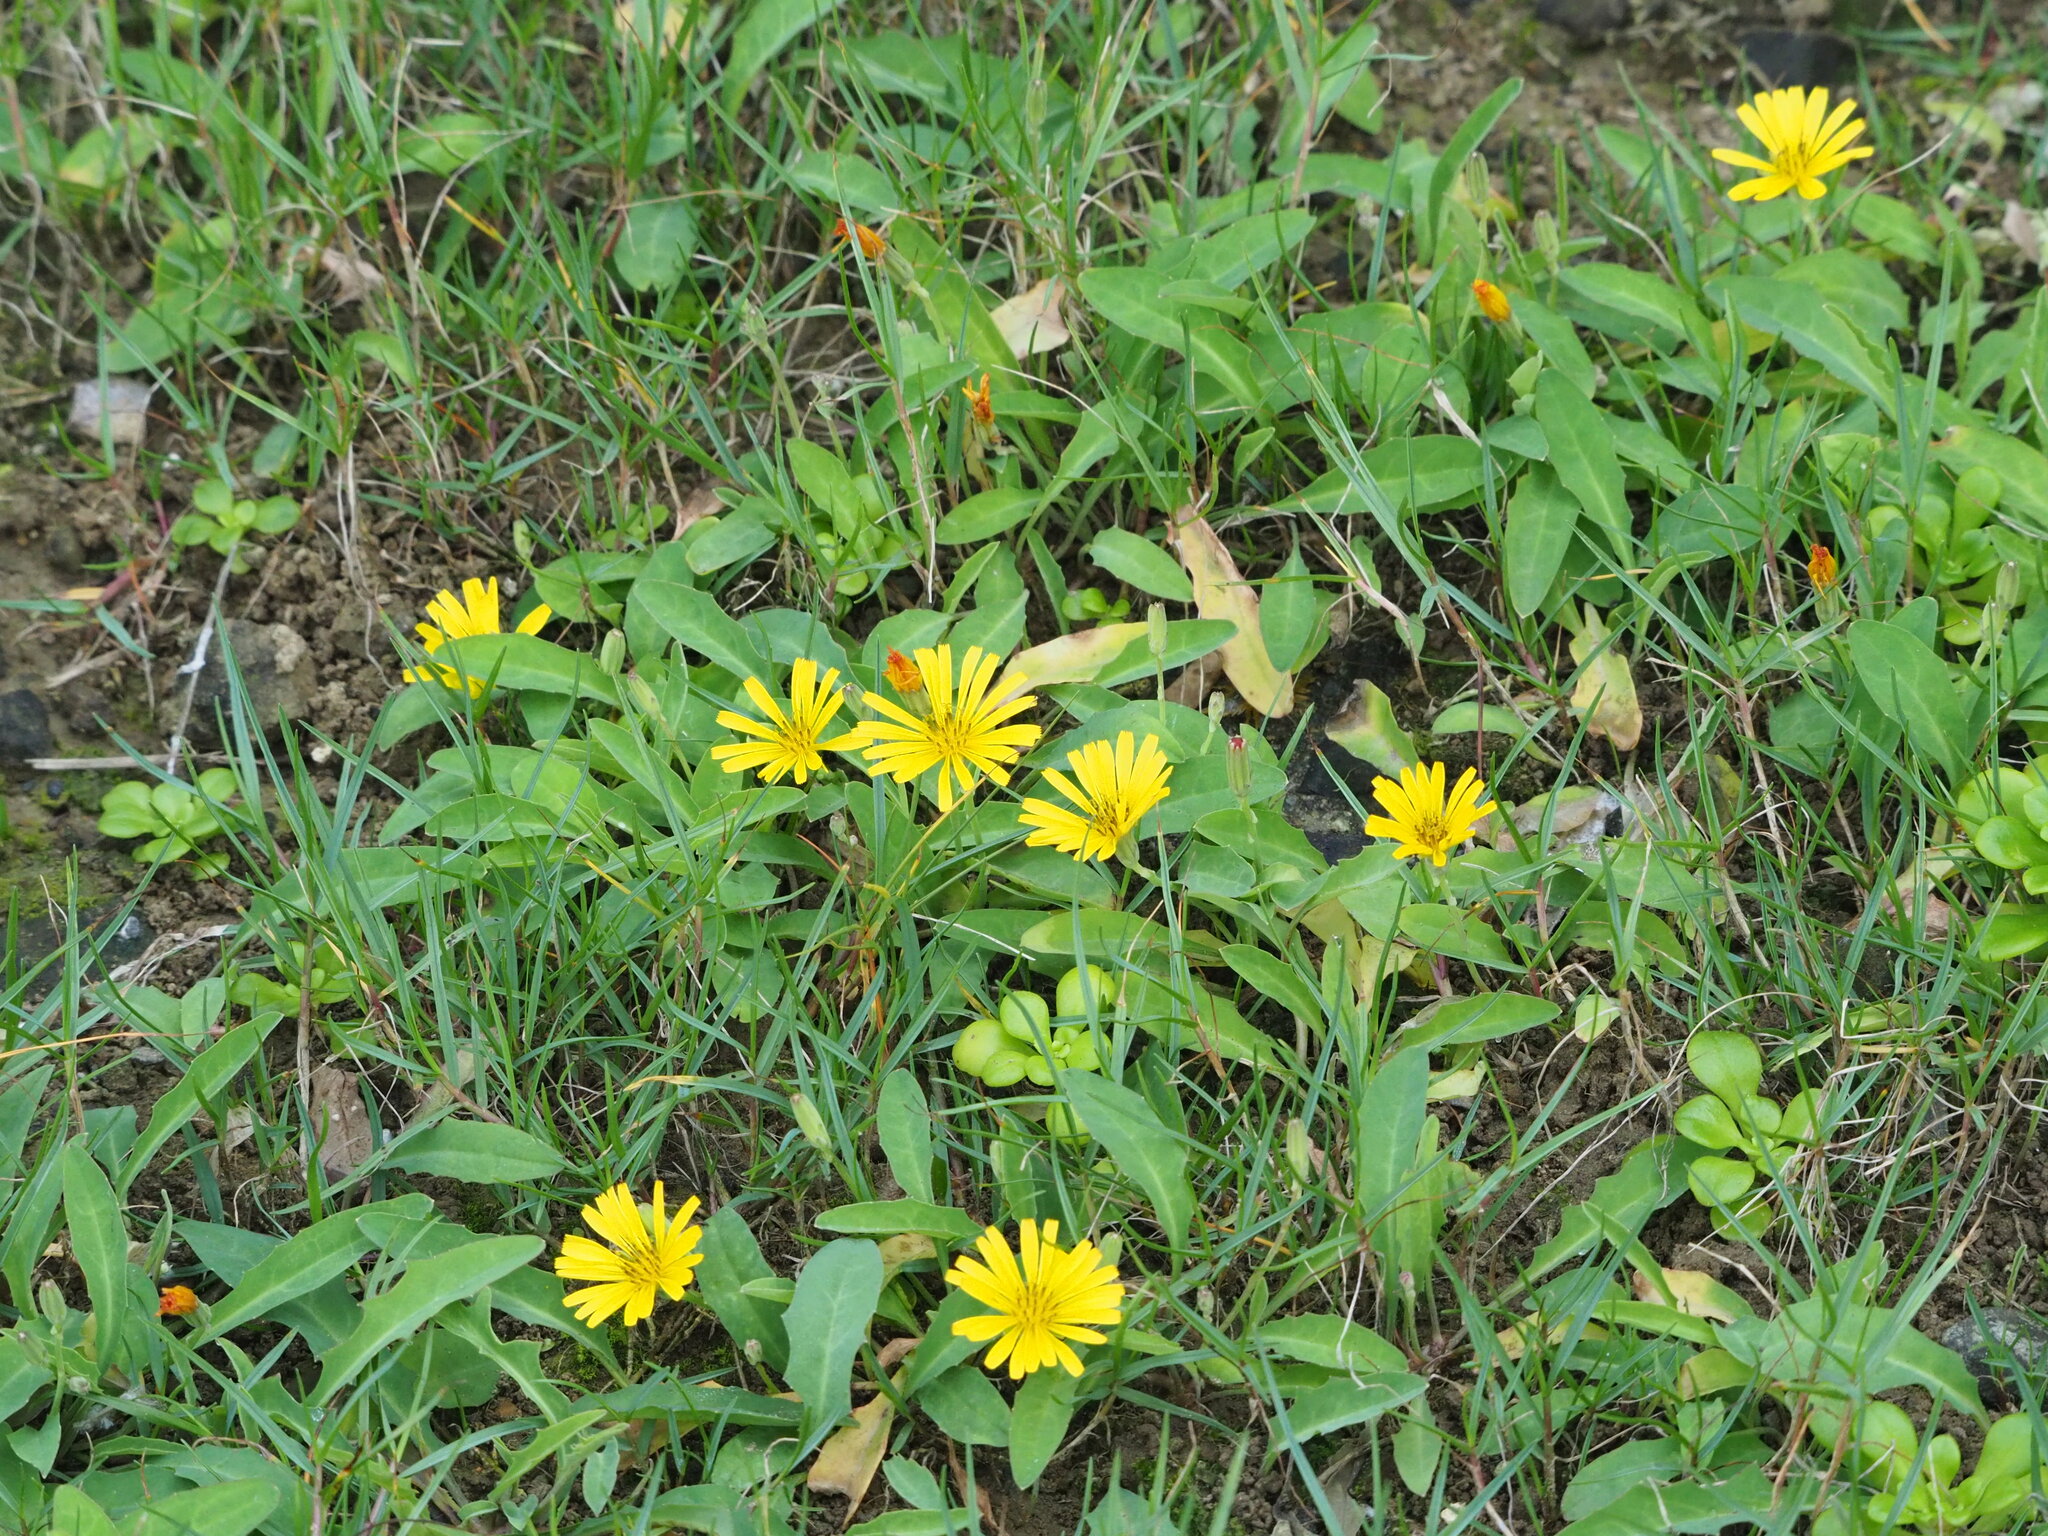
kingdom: Plantae
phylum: Tracheophyta
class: Magnoliopsida
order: Asterales
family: Asteraceae
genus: Ixeris
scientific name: Ixeris japonica
